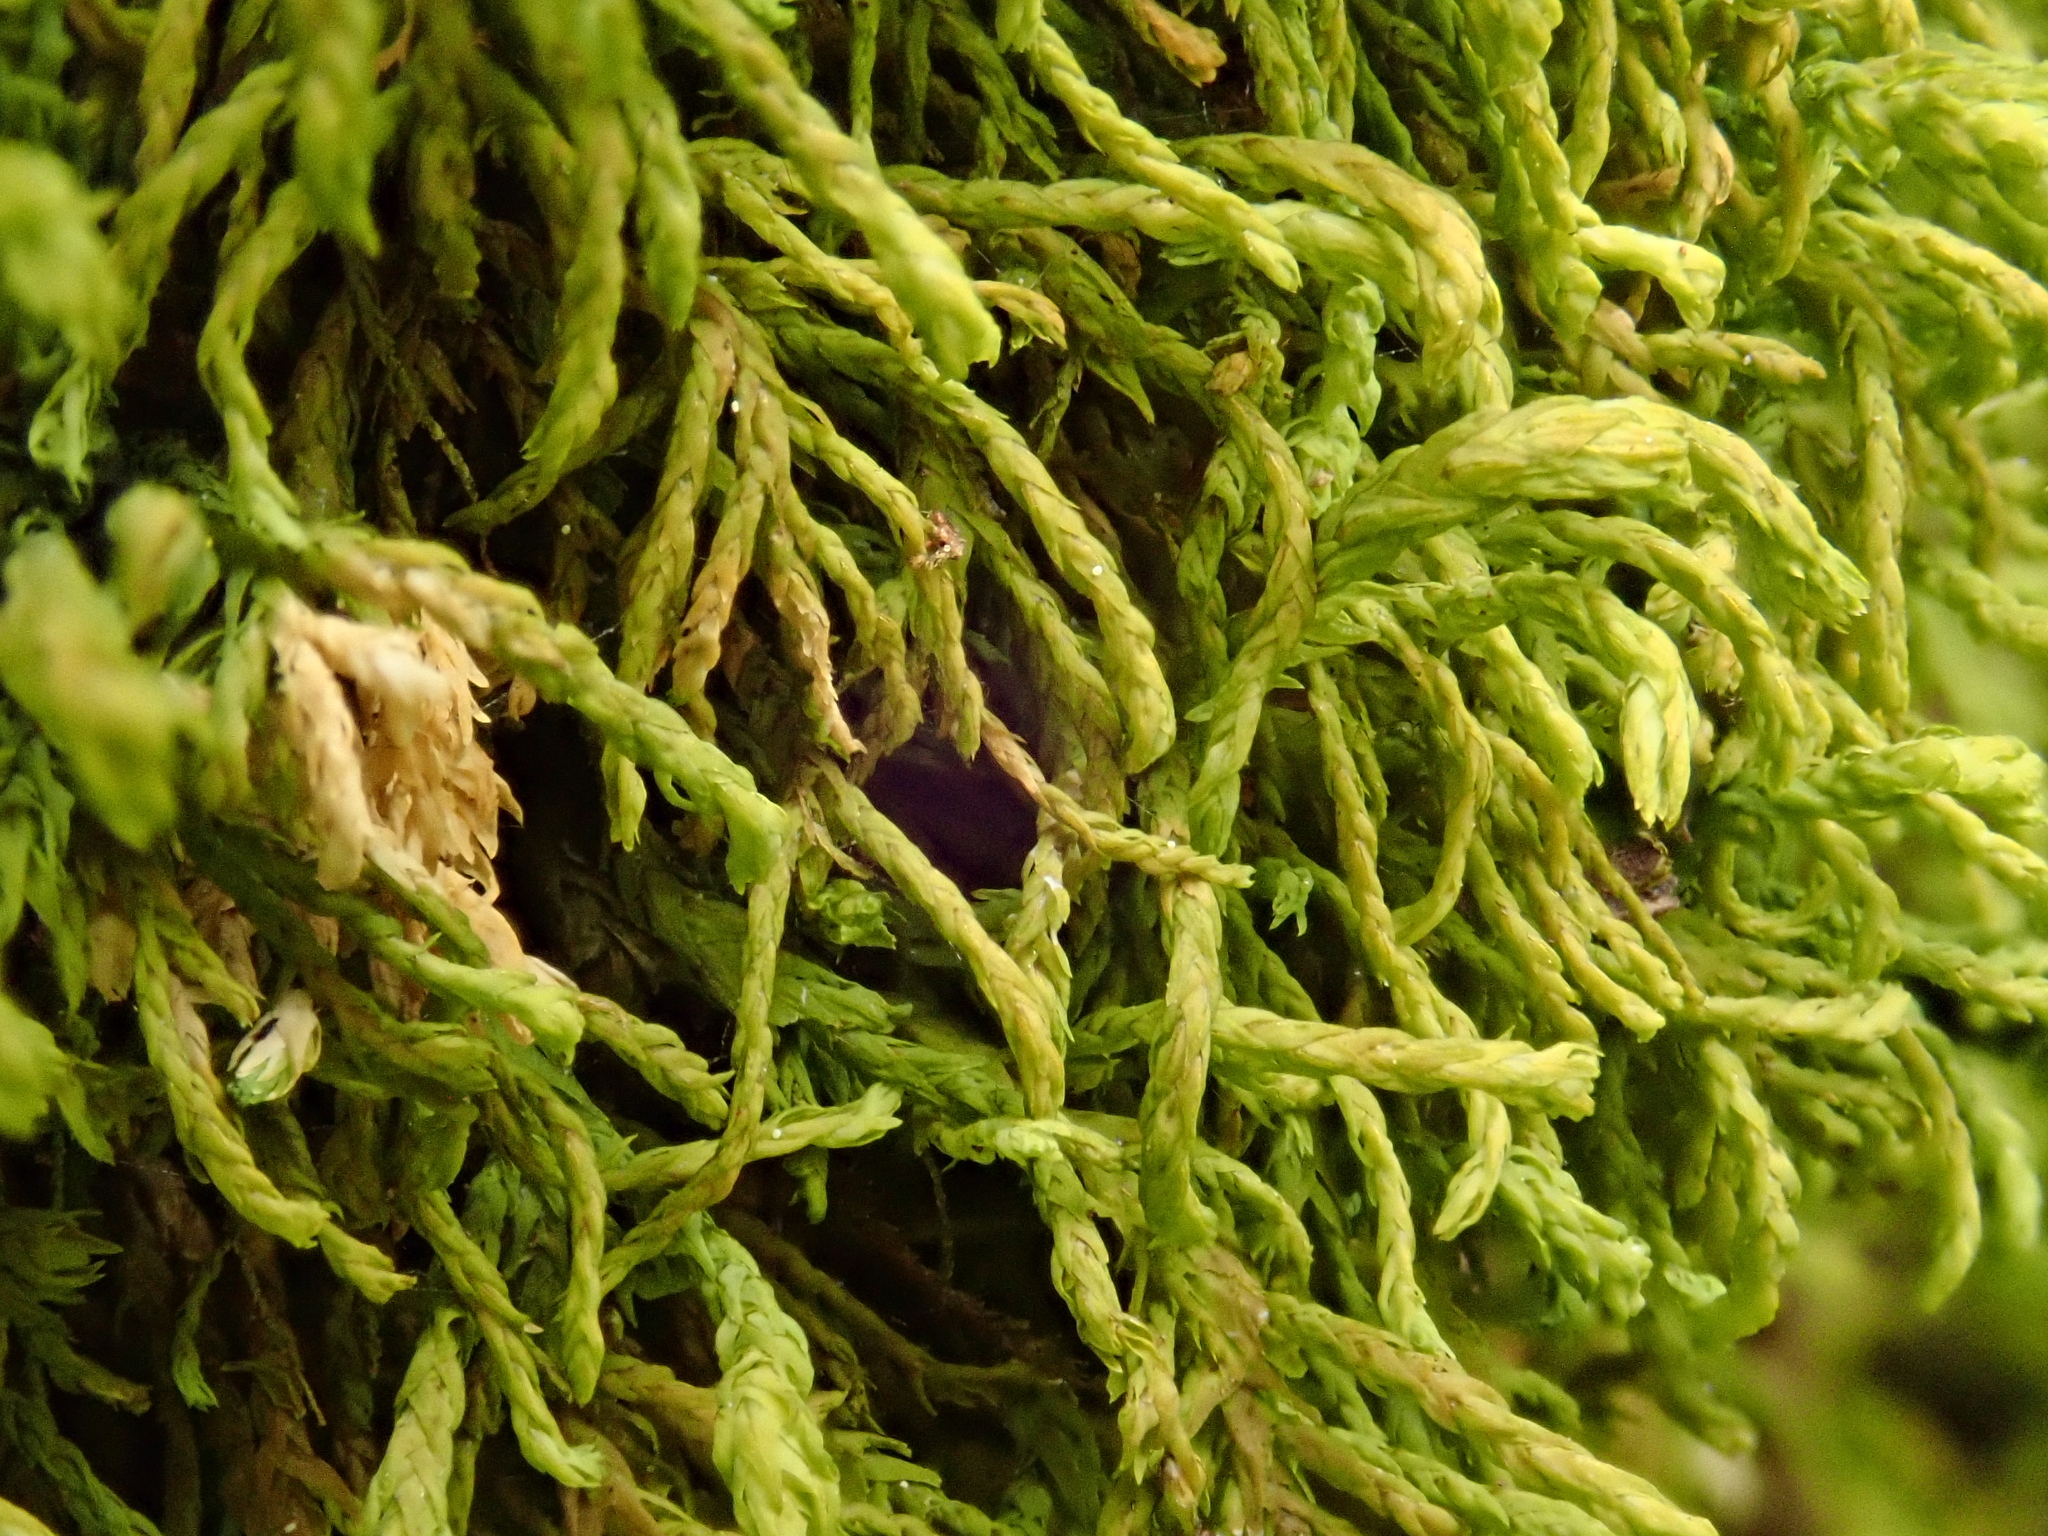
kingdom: Plantae
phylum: Bryophyta
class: Bryopsida
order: Hypnales
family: Neckeraceae
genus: Pseudanomodon
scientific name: Pseudanomodon attenuatus
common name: Tree-skirt moss
